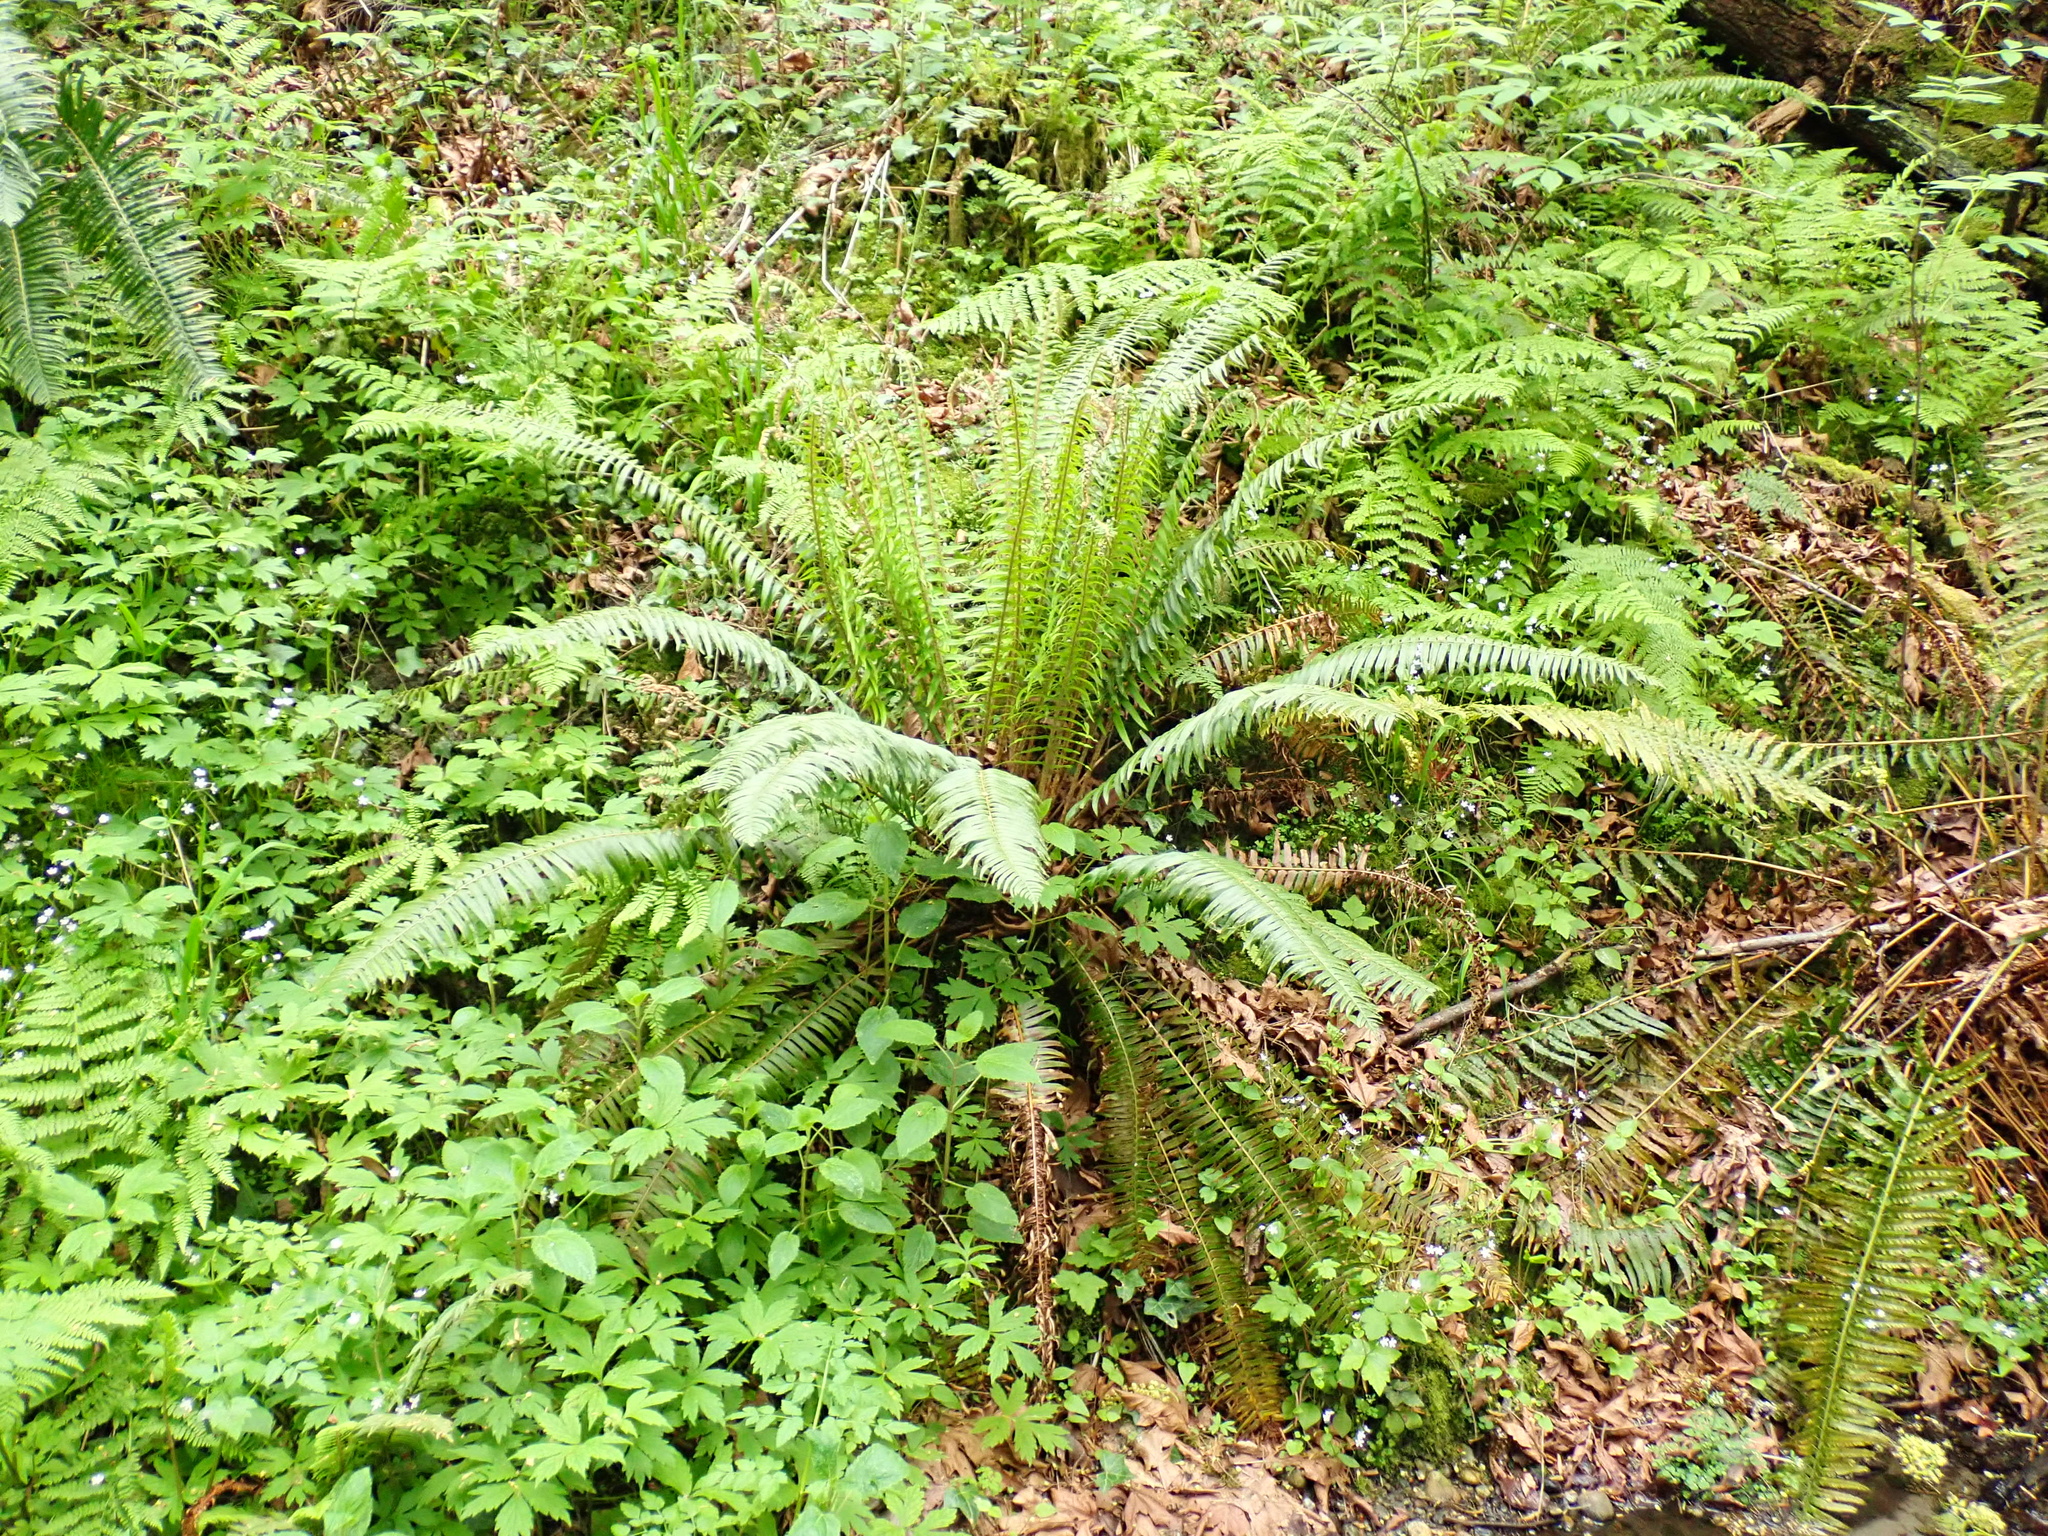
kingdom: Plantae
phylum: Tracheophyta
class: Polypodiopsida
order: Polypodiales
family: Dryopteridaceae
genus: Polystichum
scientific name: Polystichum munitum
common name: Western sword-fern
